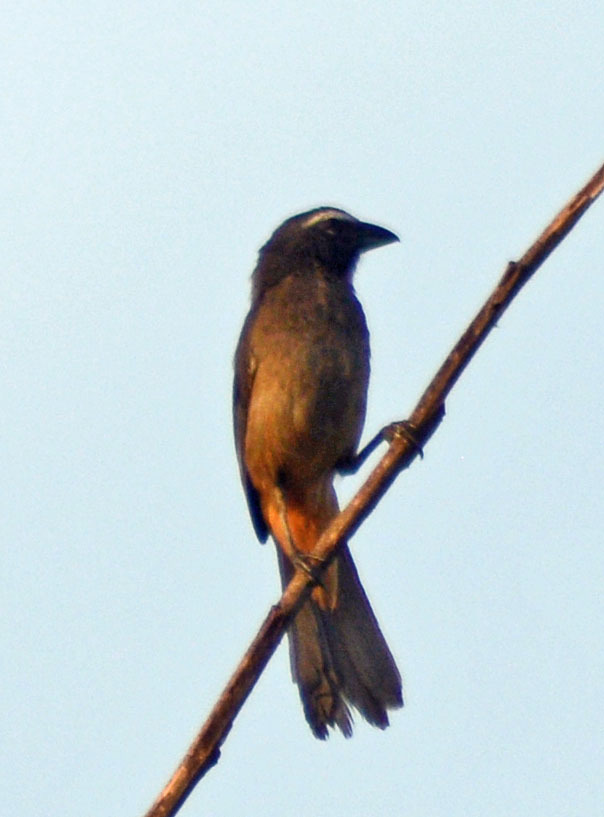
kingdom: Animalia
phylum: Chordata
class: Aves
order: Passeriformes
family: Thraupidae
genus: Saltator
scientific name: Saltator grandis
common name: Cinnamon-bellied saltator
